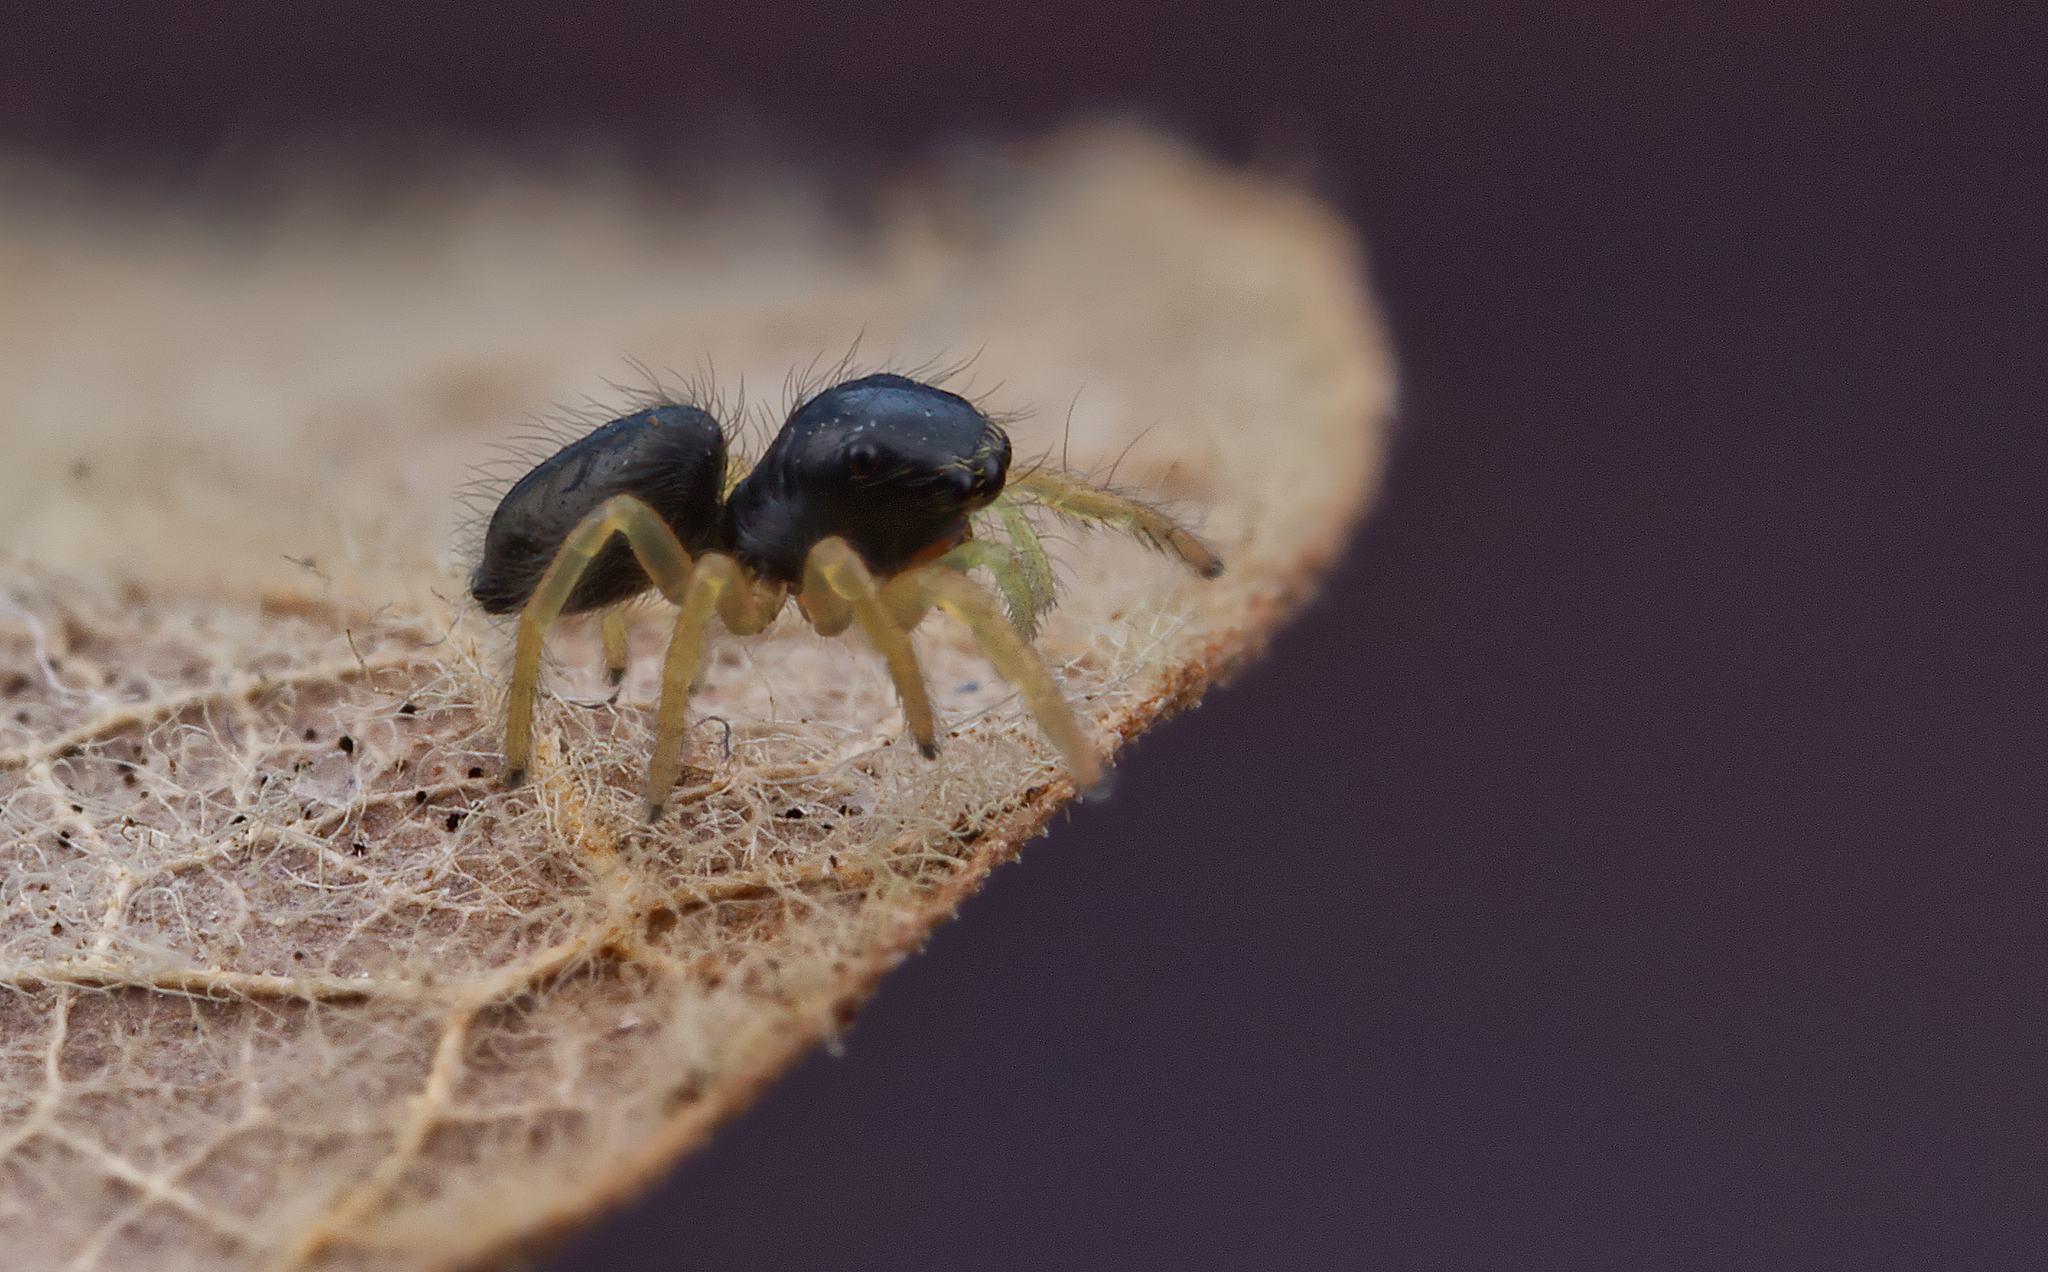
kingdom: Animalia
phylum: Arthropoda
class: Arachnida
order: Araneae
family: Salticidae
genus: Phidippus
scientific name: Phidippus whitmani
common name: Whitman's jumping spider
